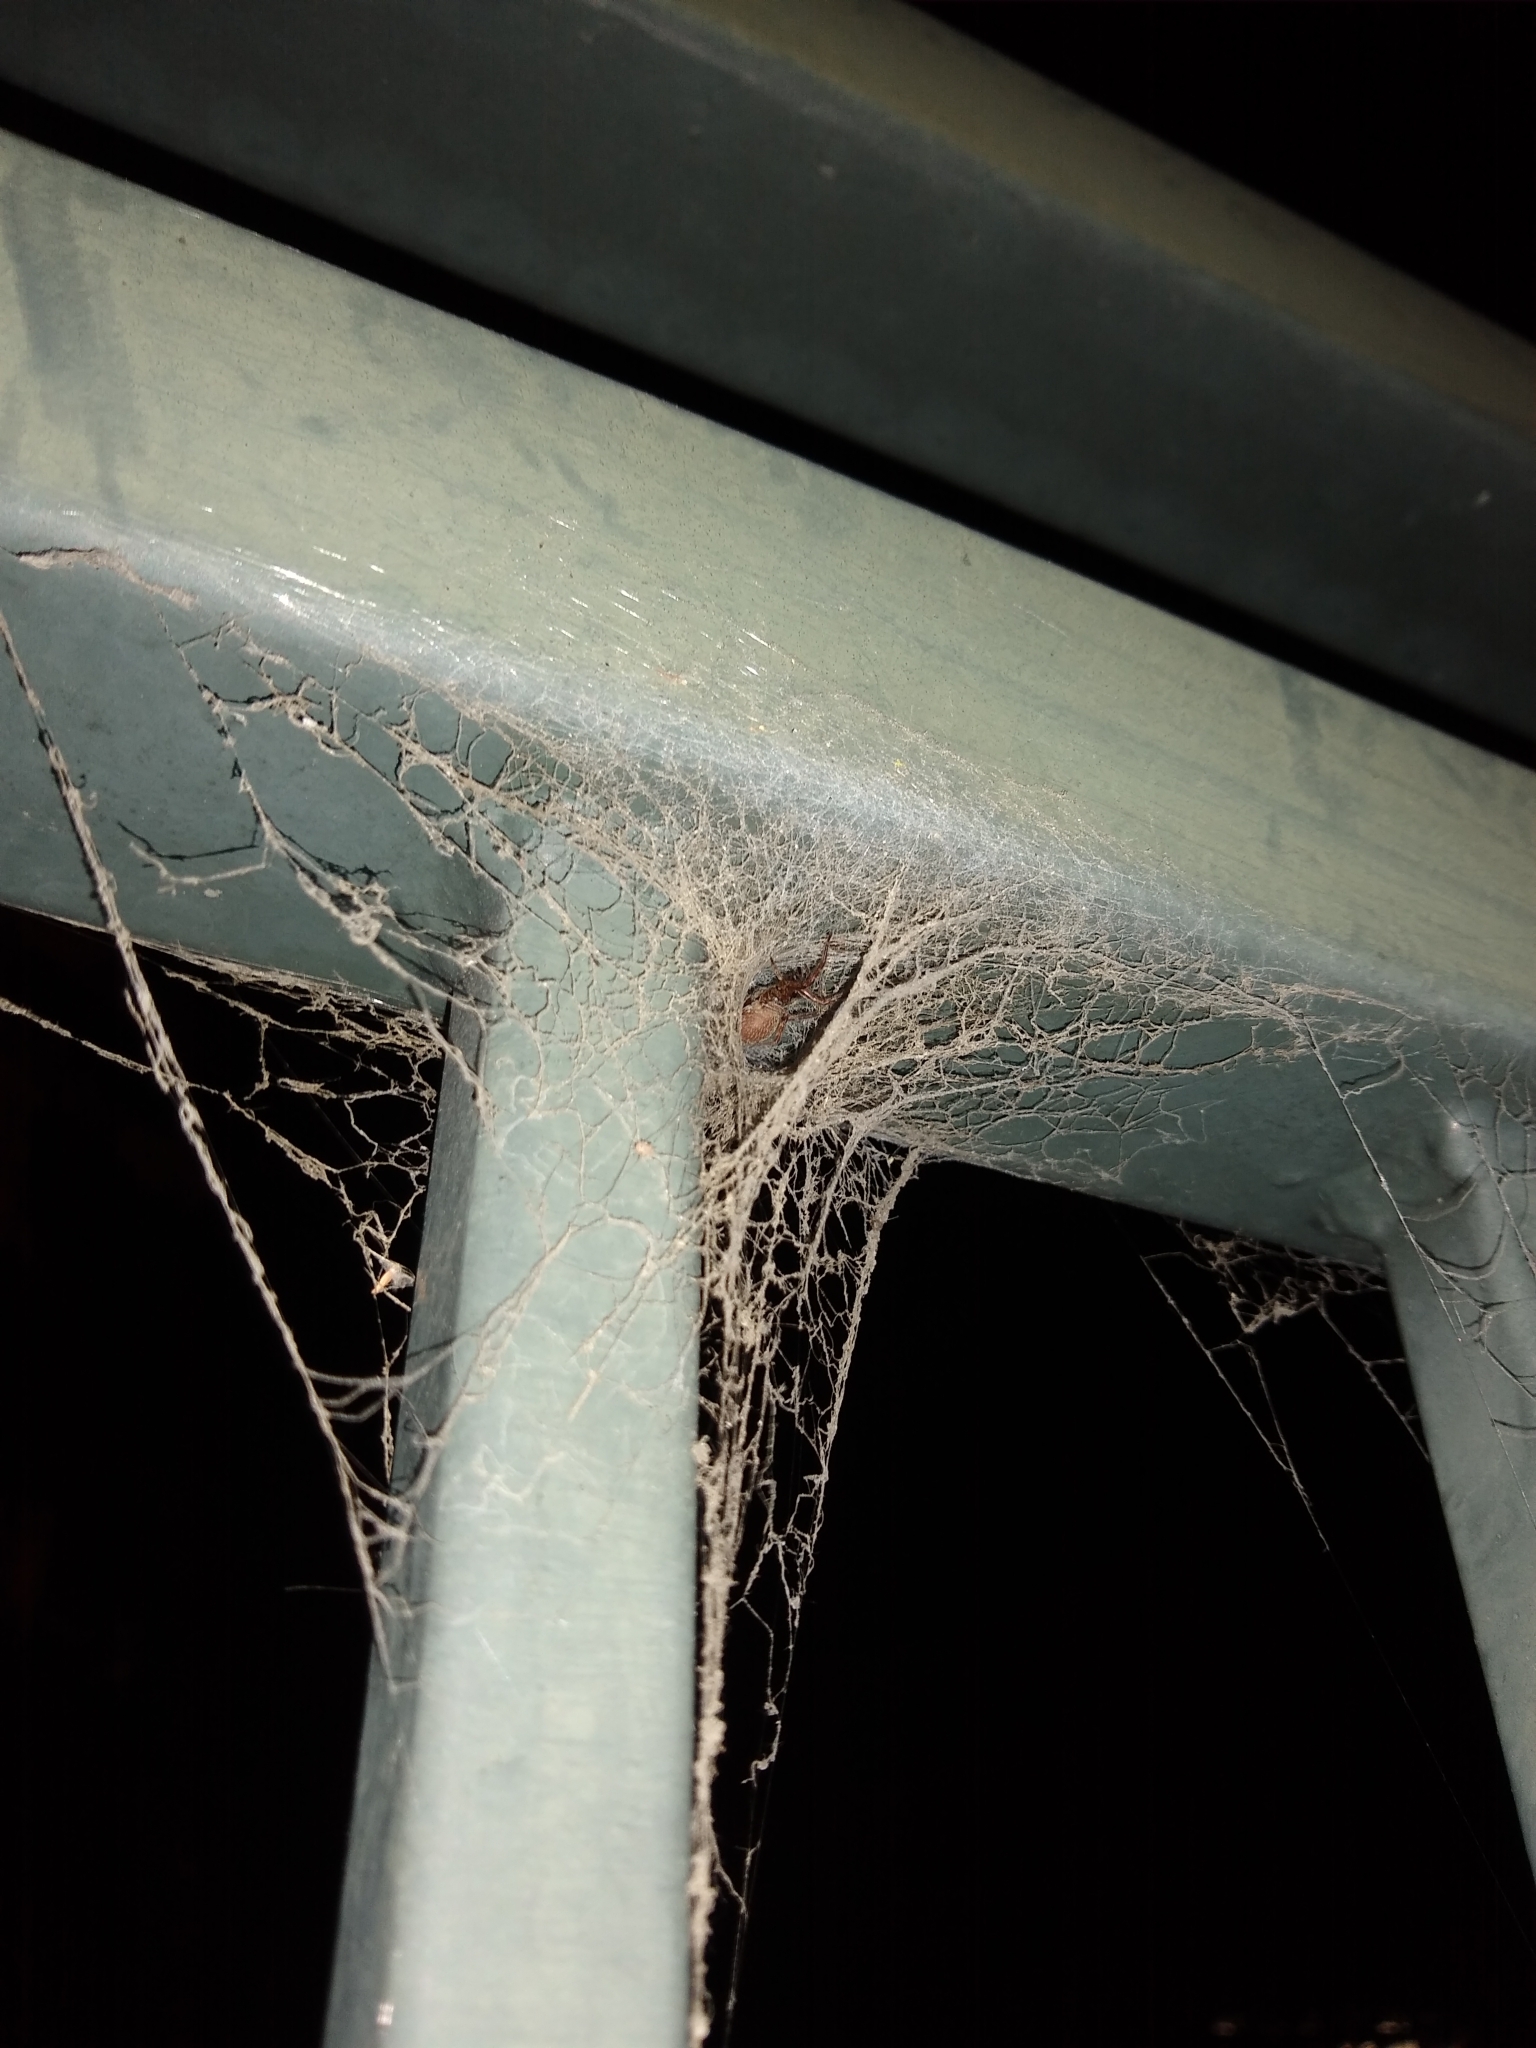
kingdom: Animalia
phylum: Arthropoda
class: Arachnida
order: Araneae
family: Desidae
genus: Badumna
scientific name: Badumna longinqua
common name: Gray house spider
